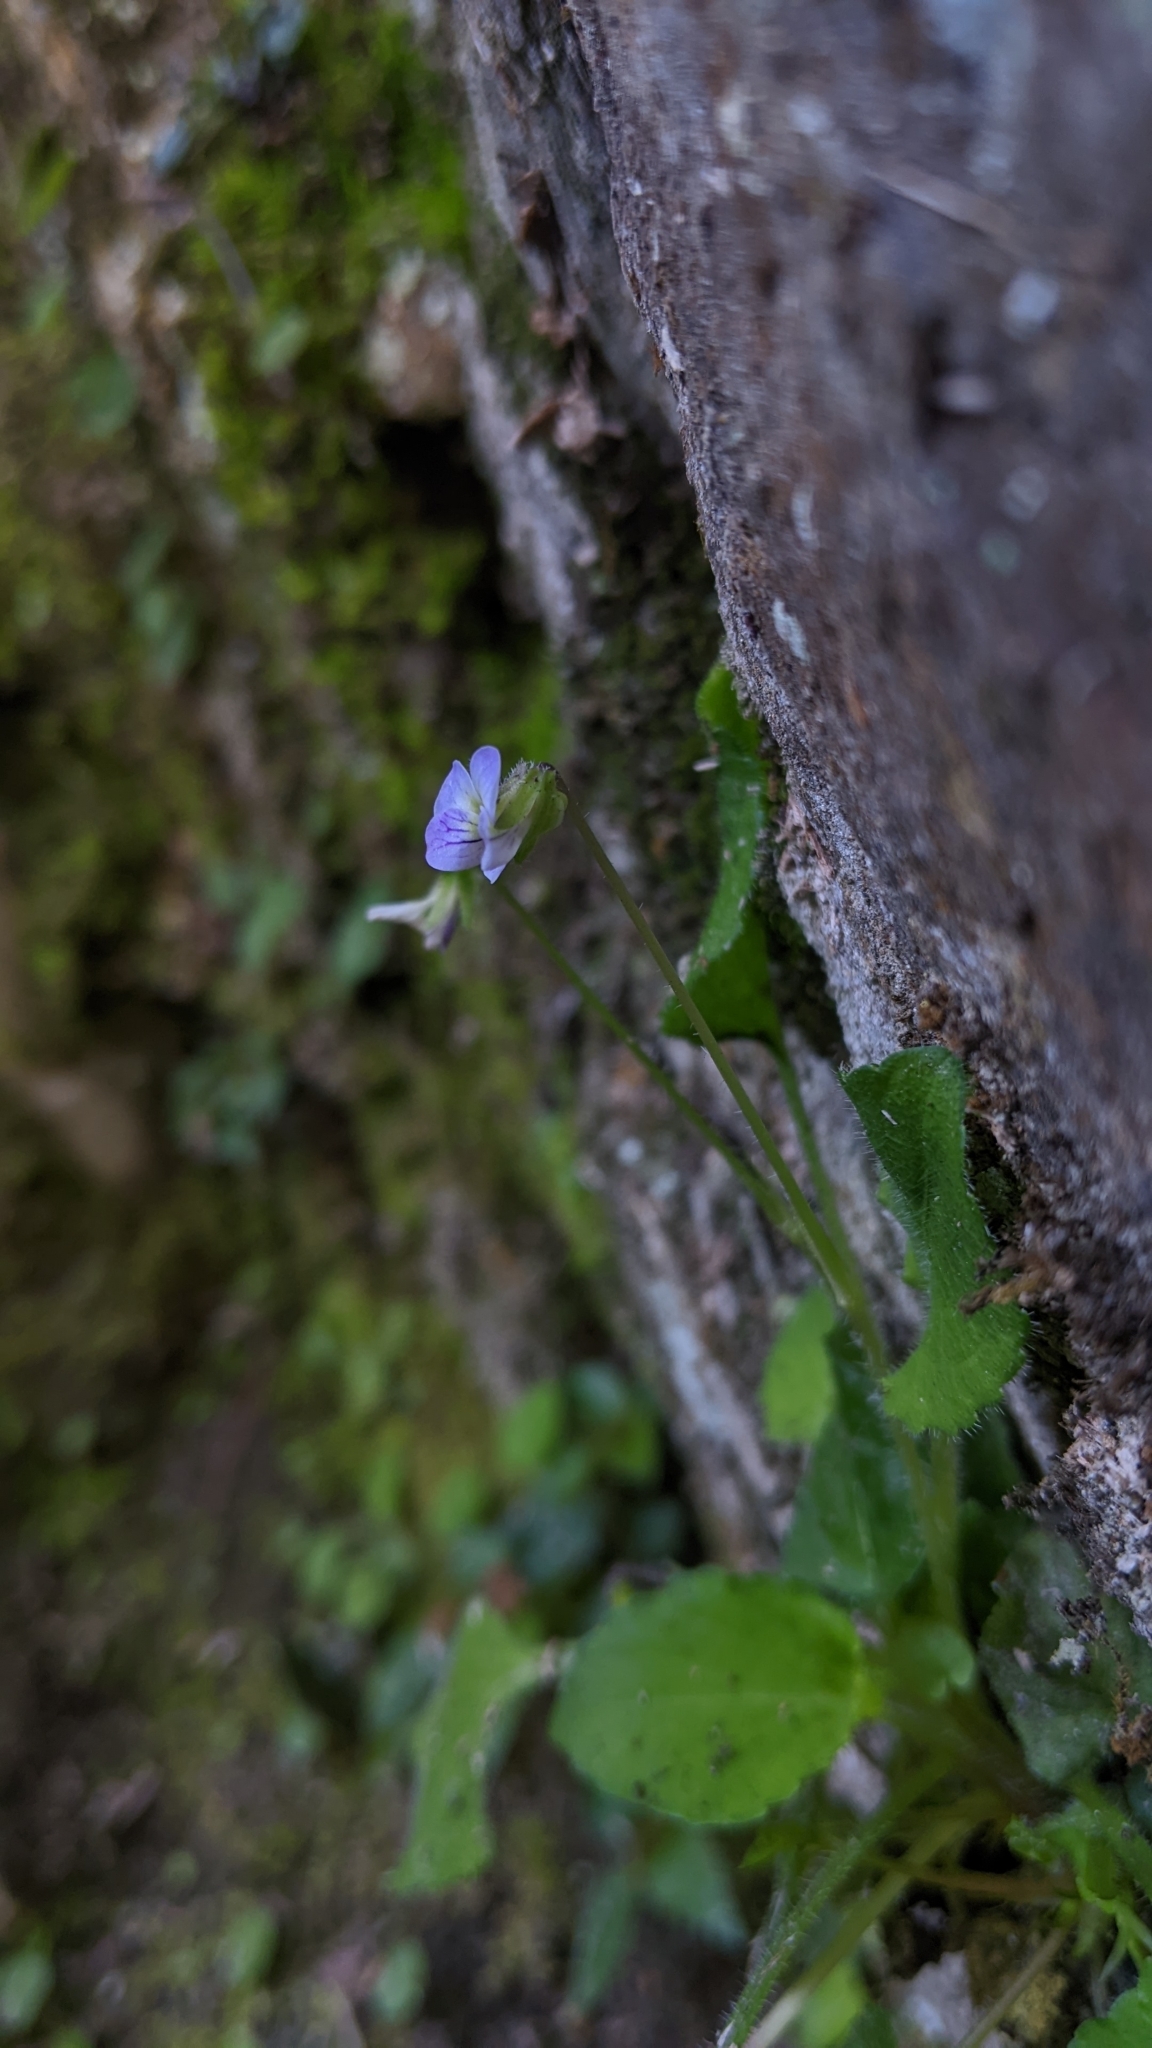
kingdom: Plantae
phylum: Tracheophyta
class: Magnoliopsida
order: Malpighiales
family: Violaceae
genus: Viola
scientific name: Viola diffusa
